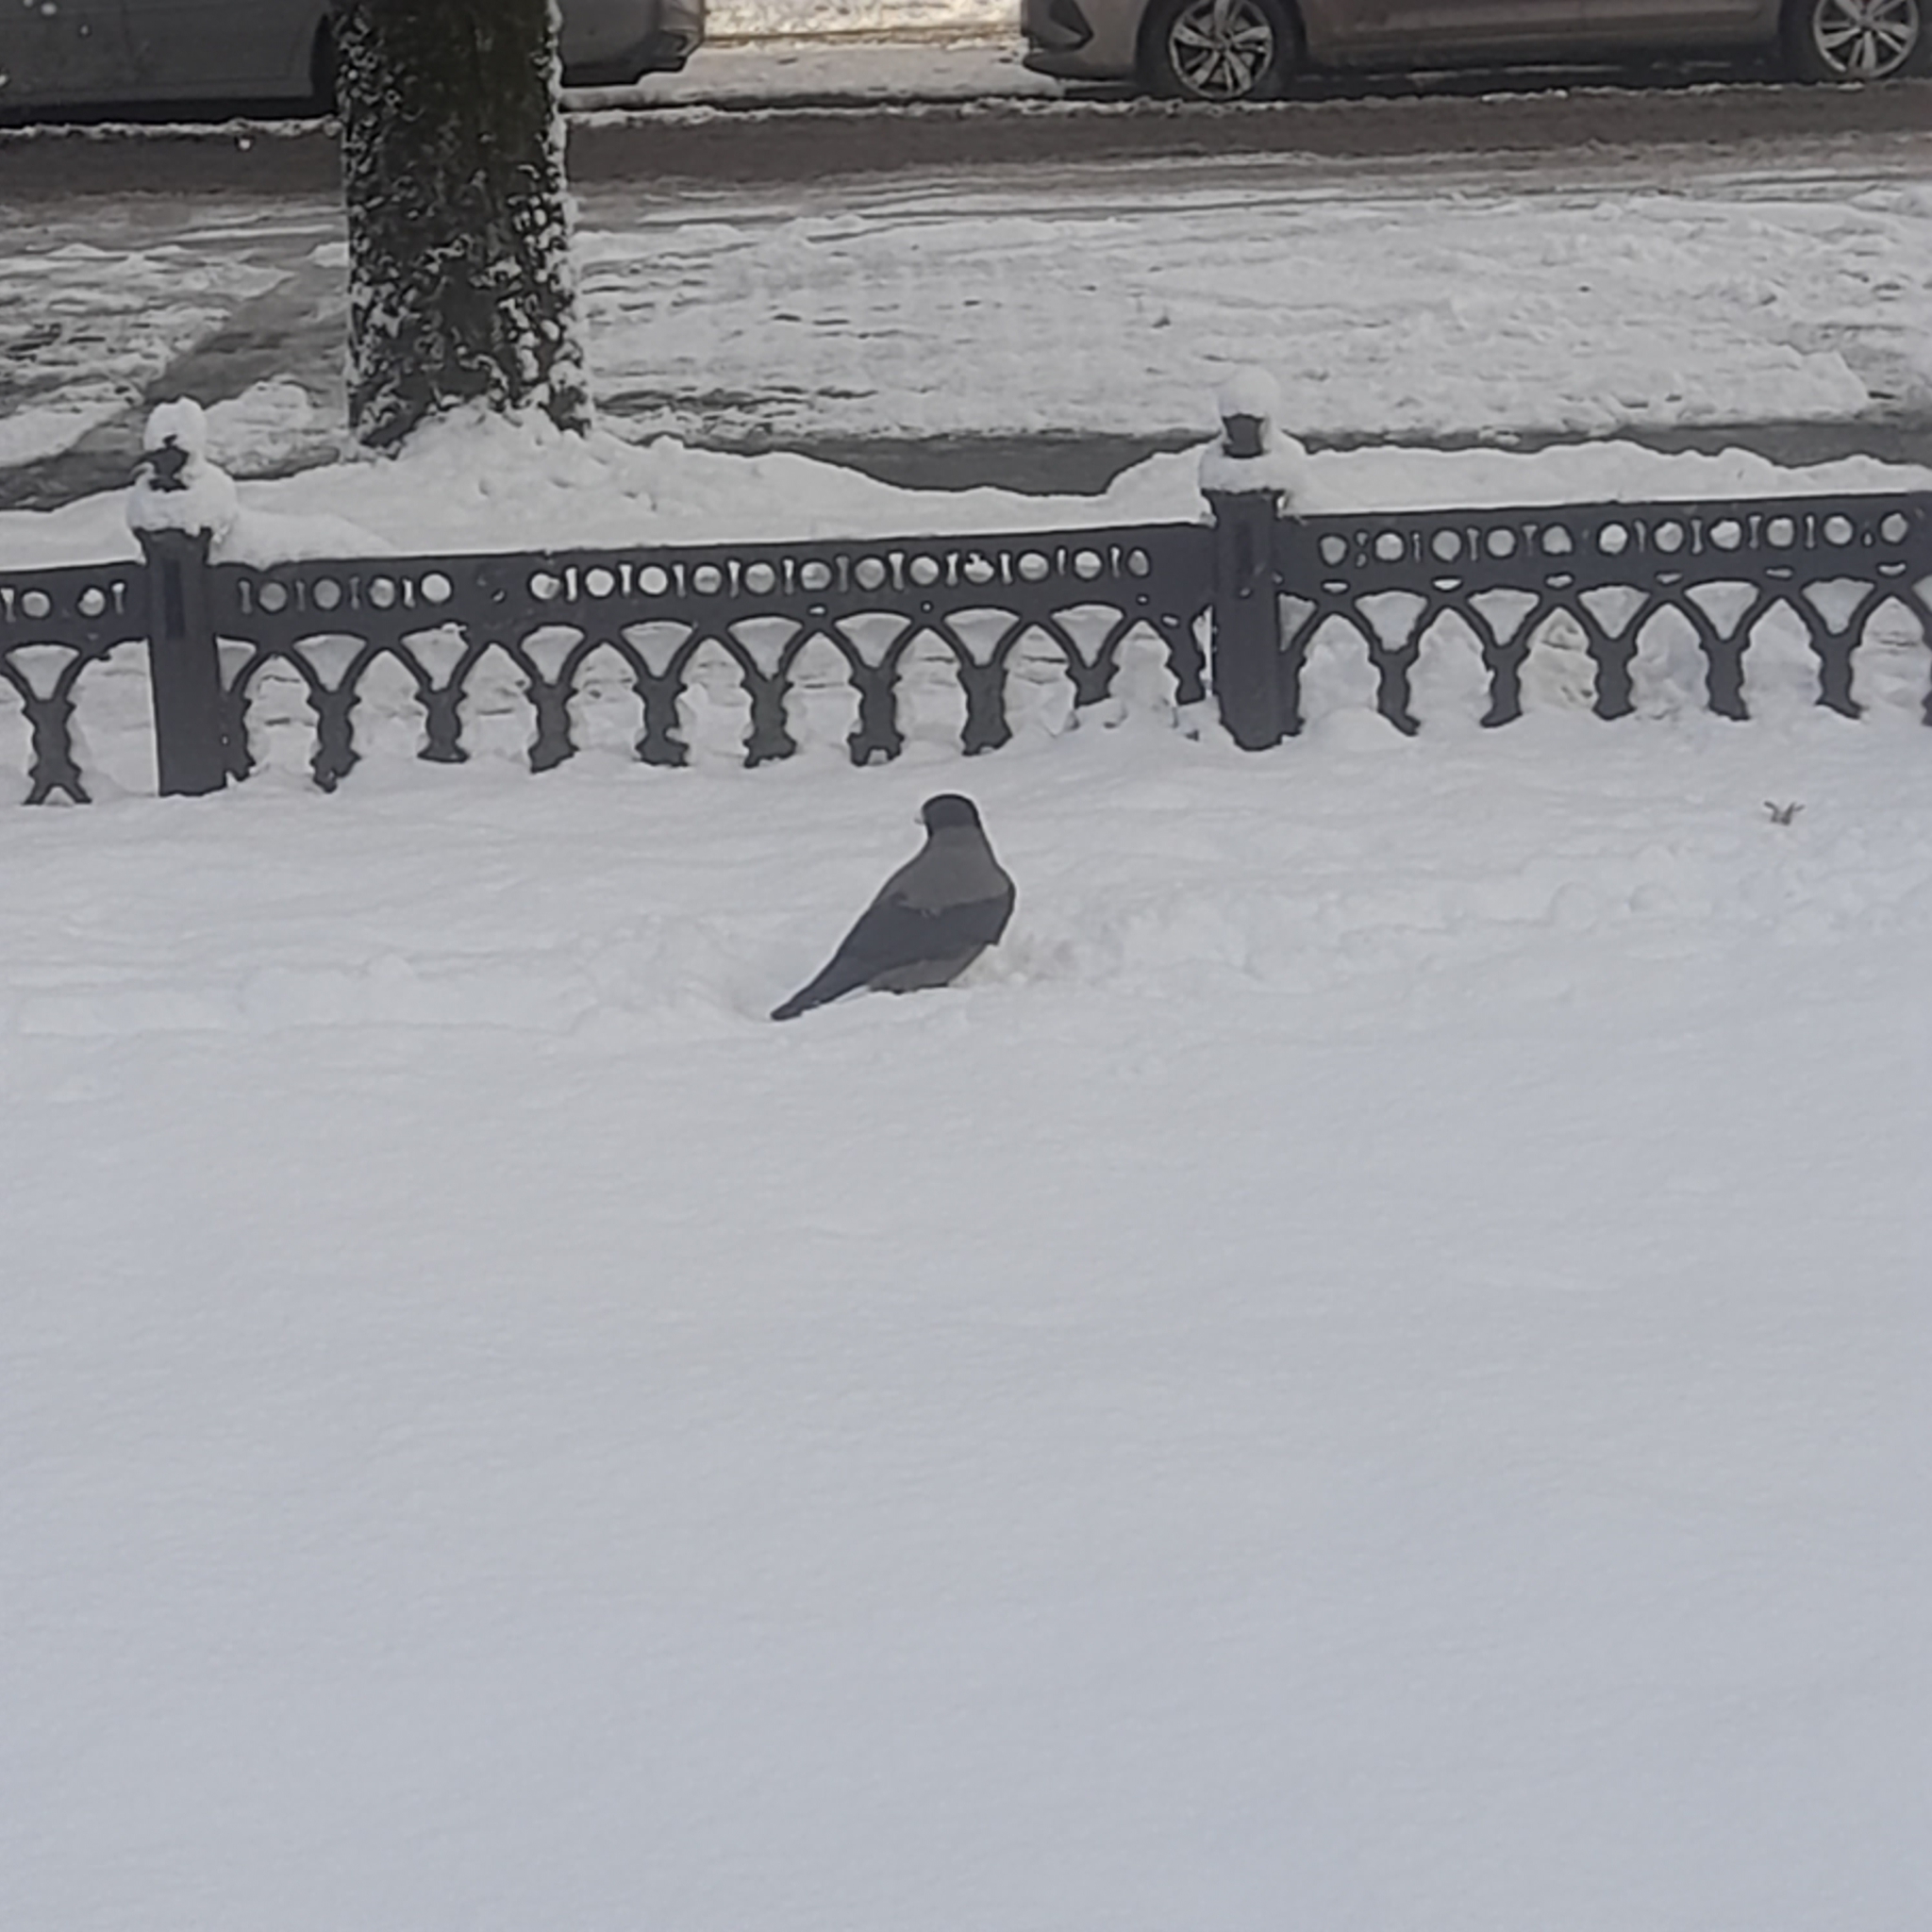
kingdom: Animalia
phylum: Chordata
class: Aves
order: Passeriformes
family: Corvidae
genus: Corvus
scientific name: Corvus cornix
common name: Hooded crow
